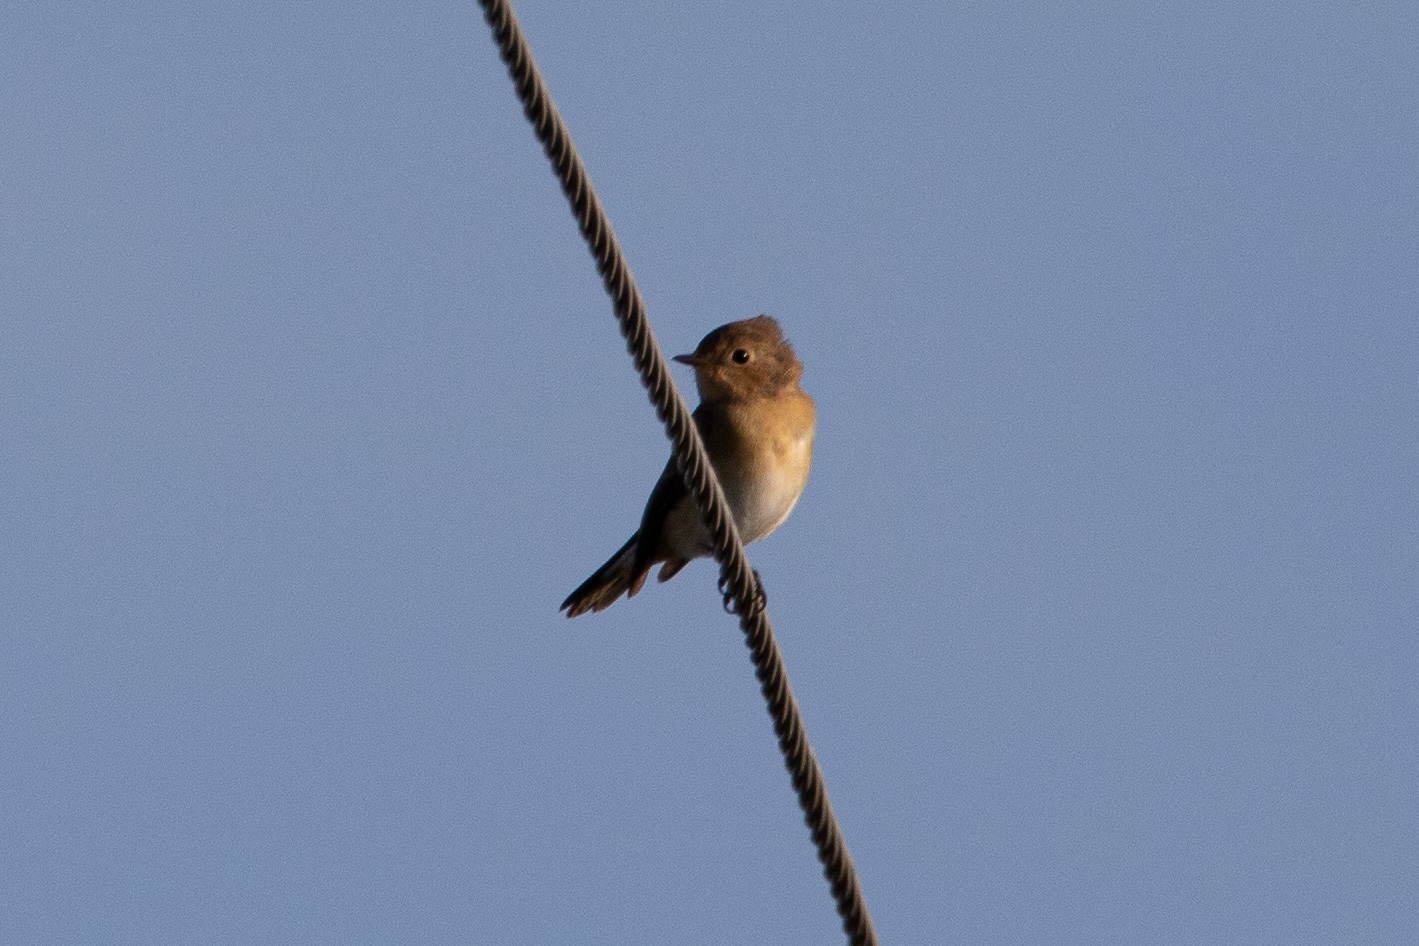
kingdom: Animalia
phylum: Chordata
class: Aves
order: Passeriformes
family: Muscicapidae
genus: Ficedula
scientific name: Ficedula parva
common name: Red-breasted flycatcher
